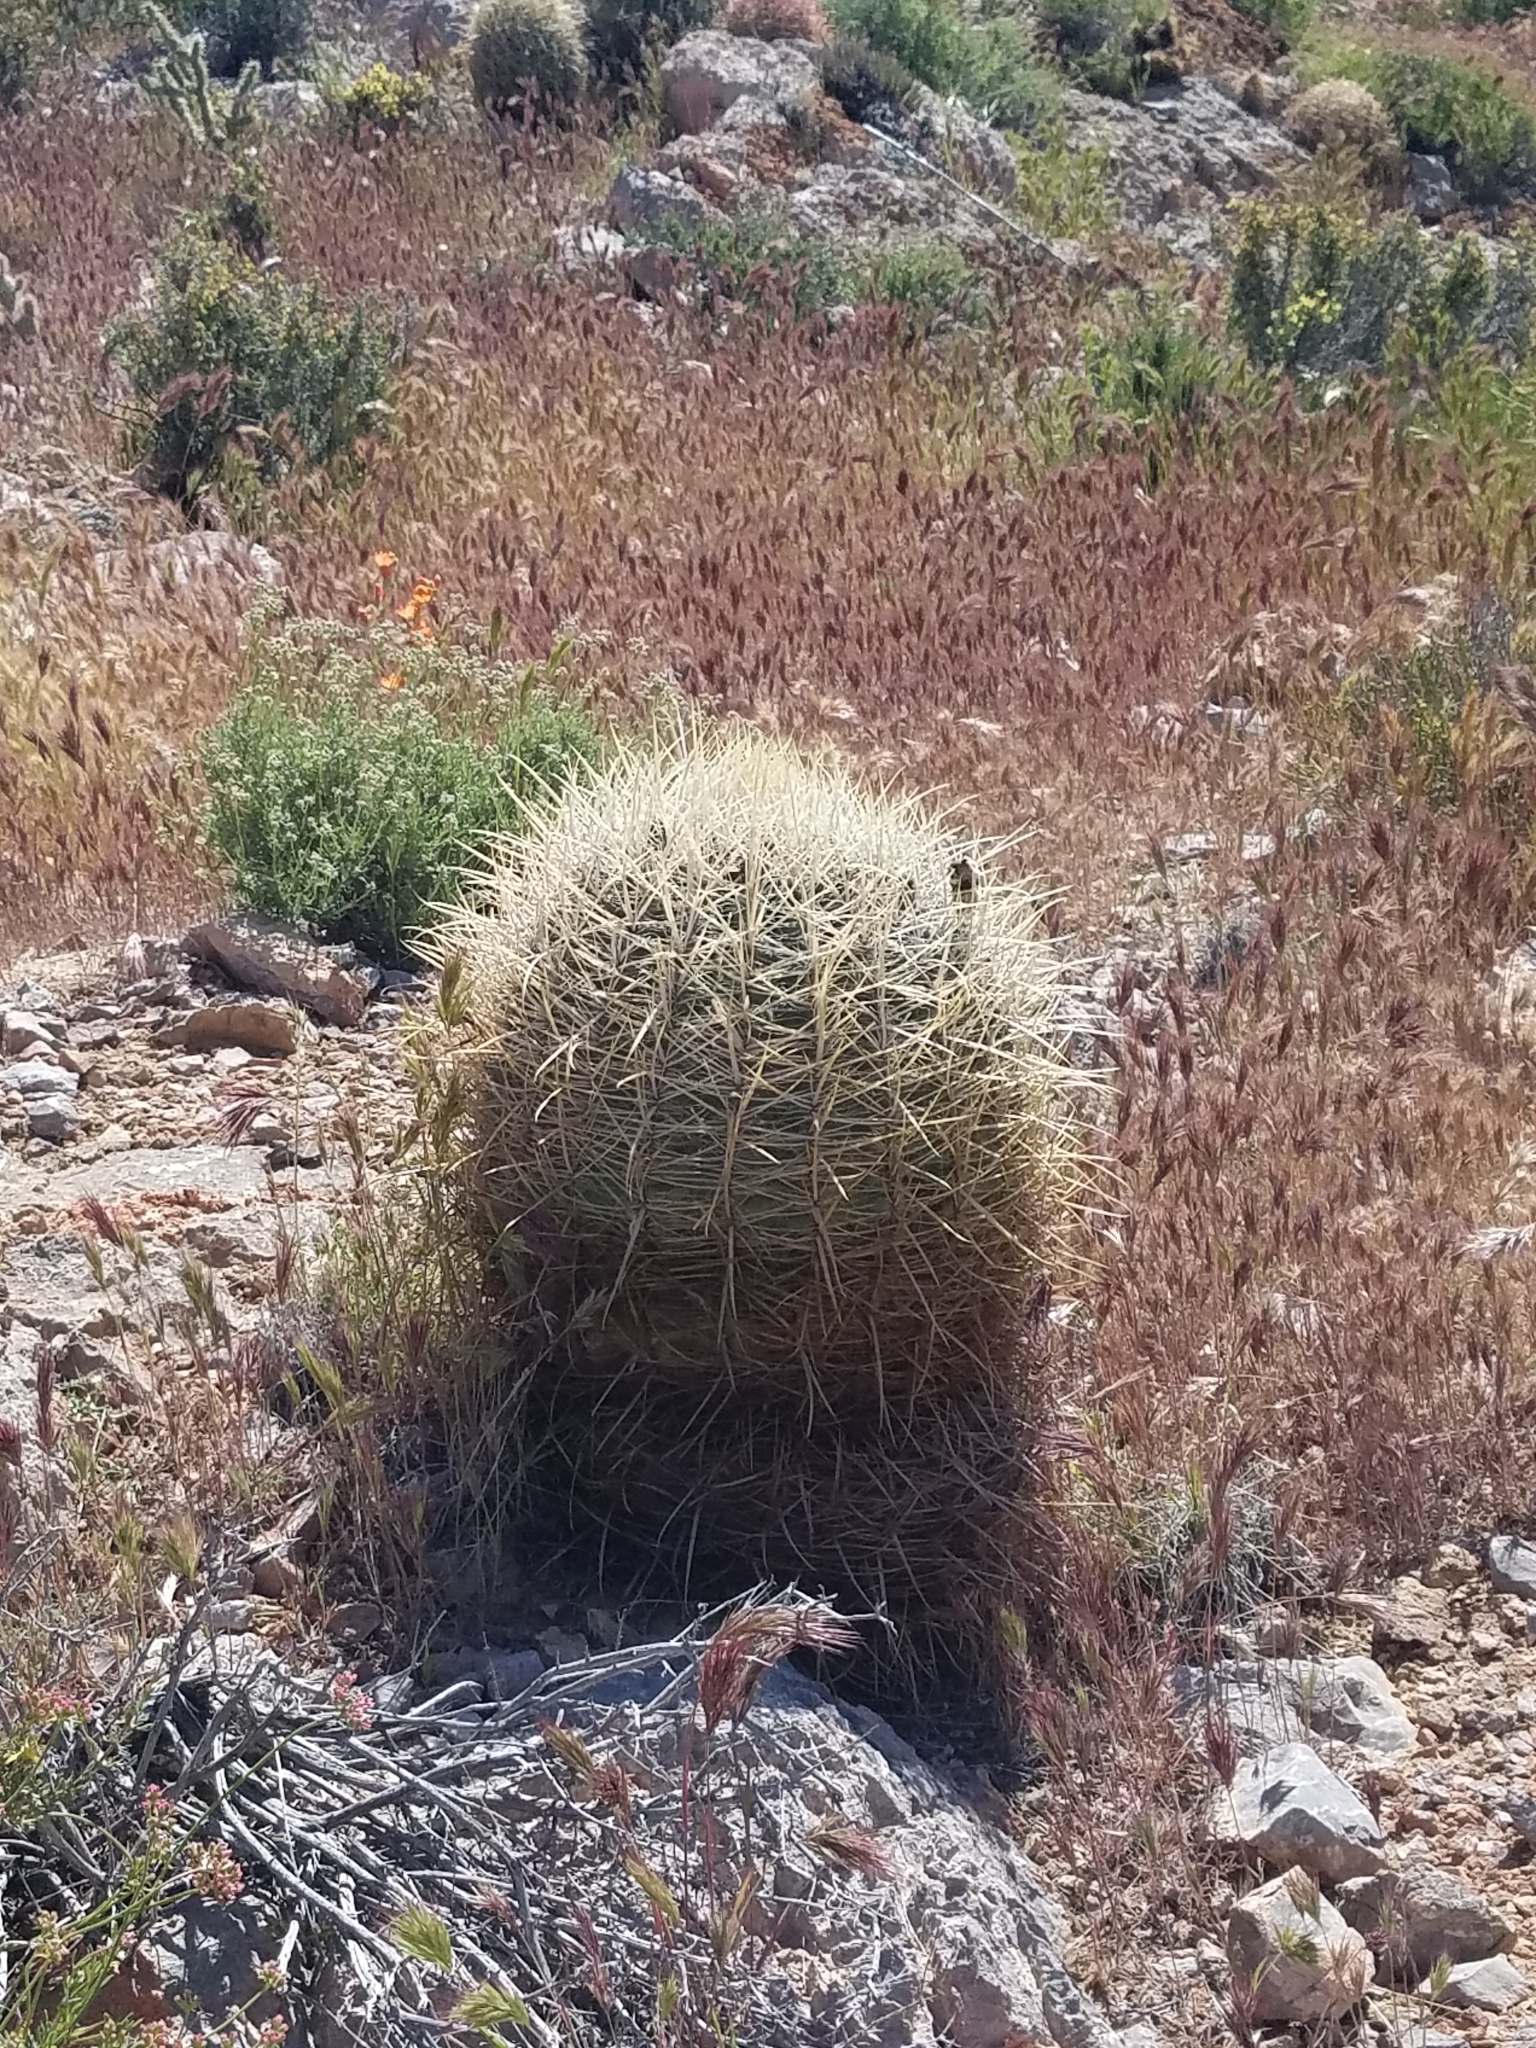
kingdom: Plantae
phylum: Tracheophyta
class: Magnoliopsida
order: Caryophyllales
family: Cactaceae
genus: Ferocactus
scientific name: Ferocactus cylindraceus
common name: California barrel cactus
